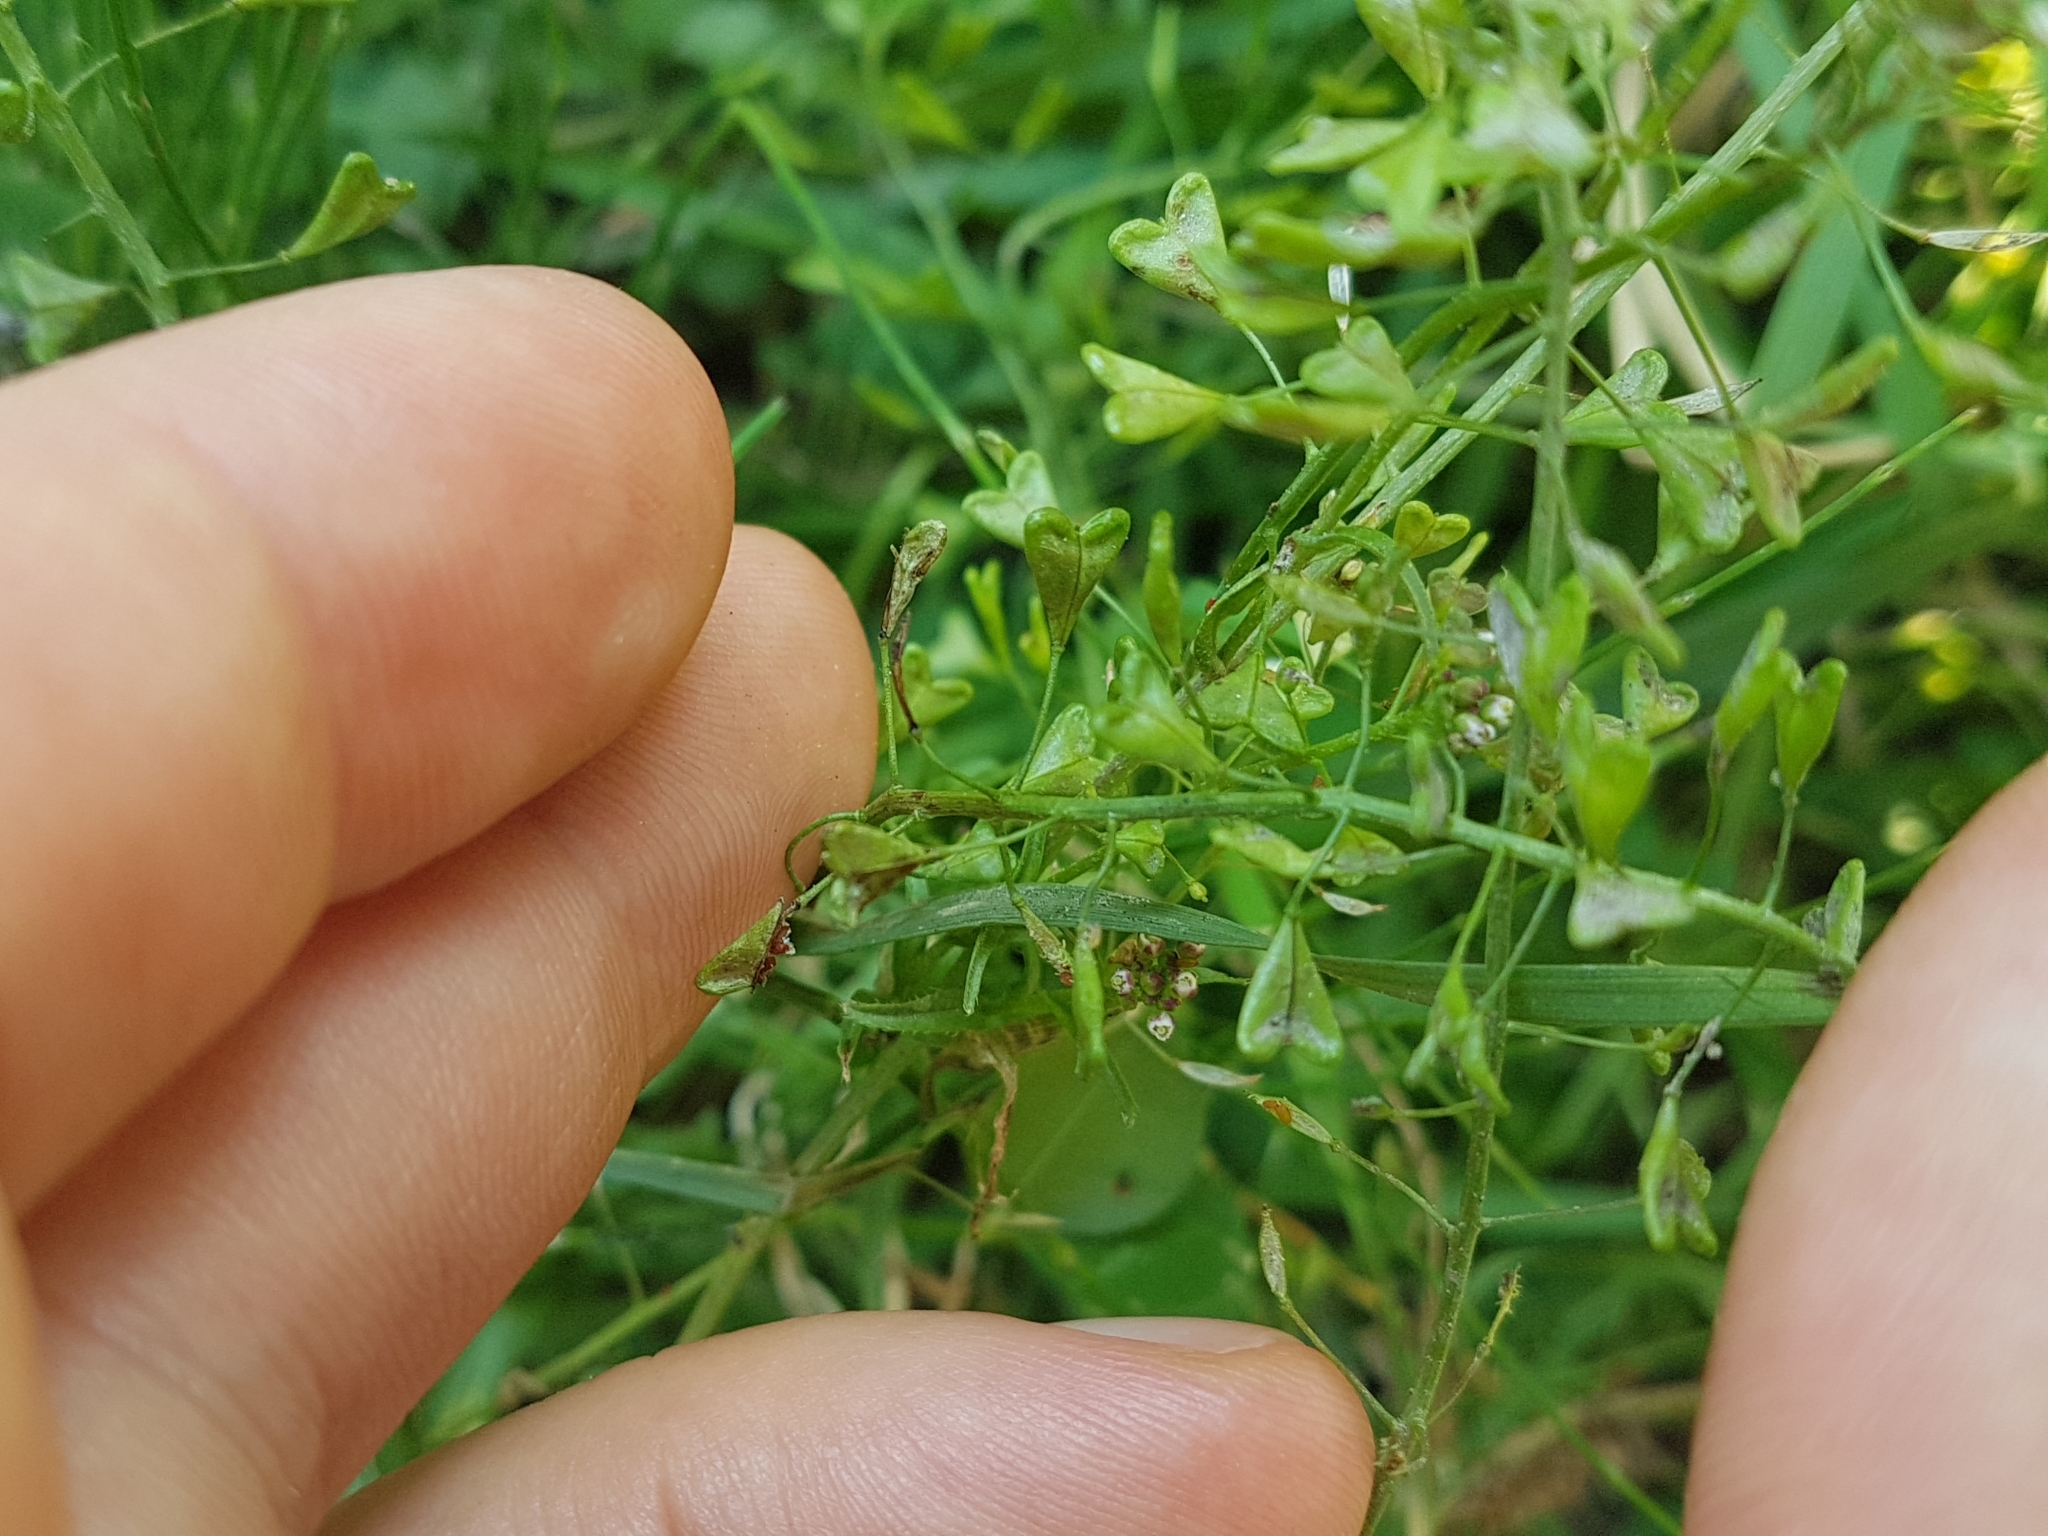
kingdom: Plantae
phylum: Tracheophyta
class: Magnoliopsida
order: Brassicales
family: Brassicaceae
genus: Capsella
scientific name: Capsella bursa-pastoris
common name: Shepherd's purse
